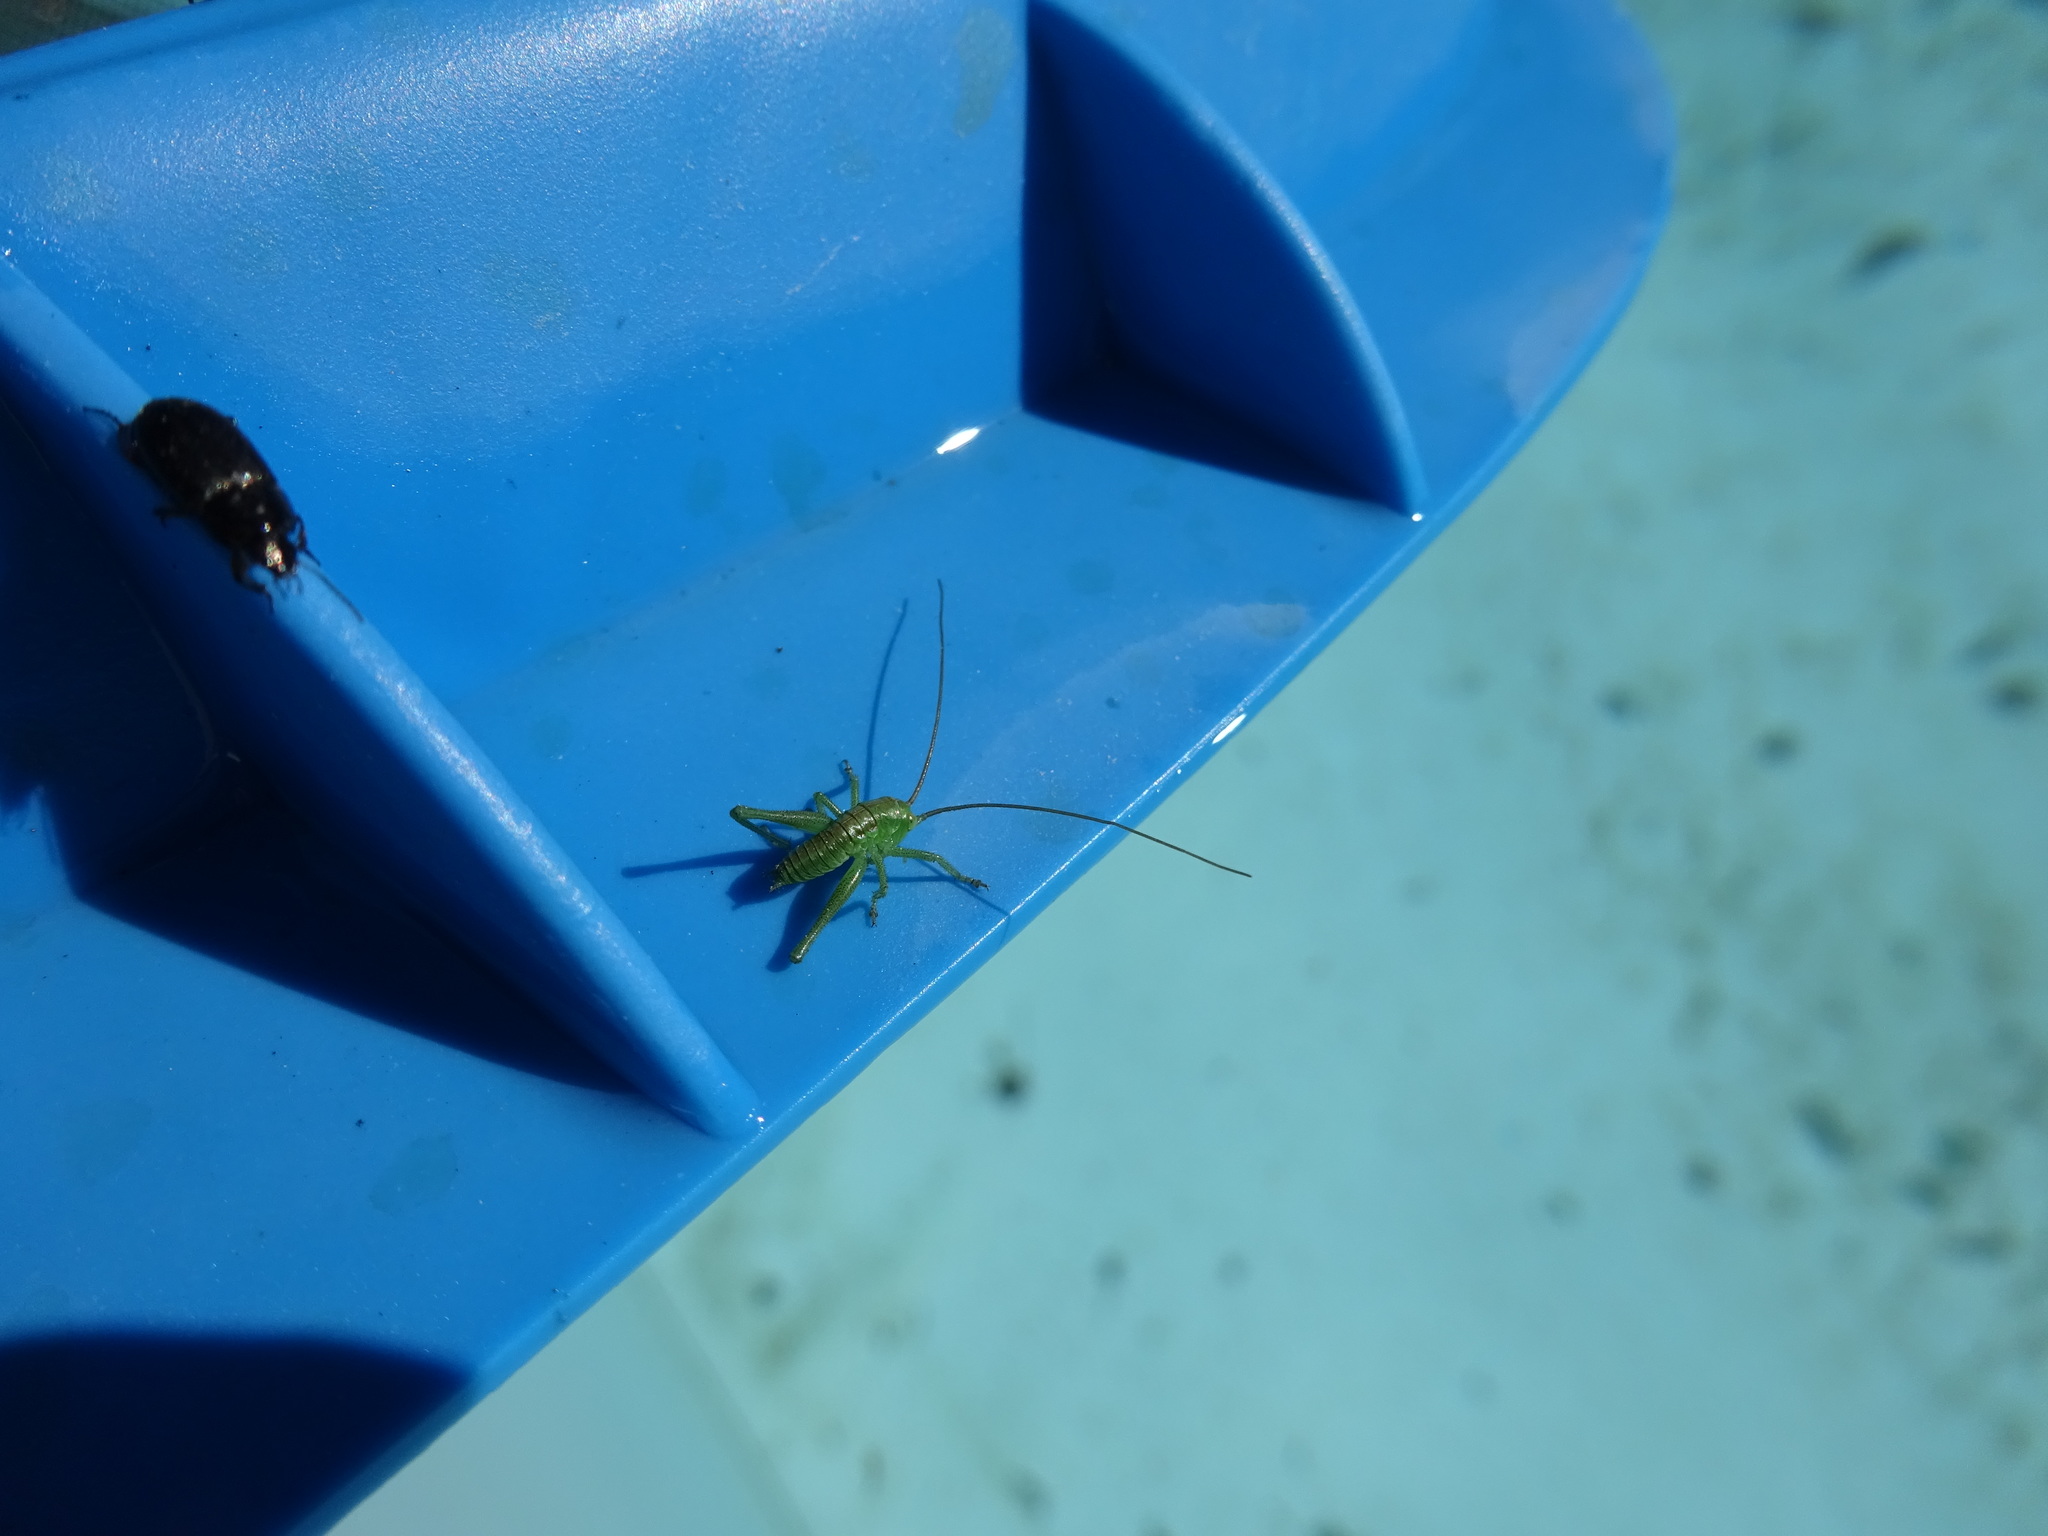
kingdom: Animalia
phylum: Arthropoda
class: Insecta
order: Orthoptera
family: Tettigoniidae
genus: Tettigonia
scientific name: Tettigonia viridissima
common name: Great green bush-cricket
